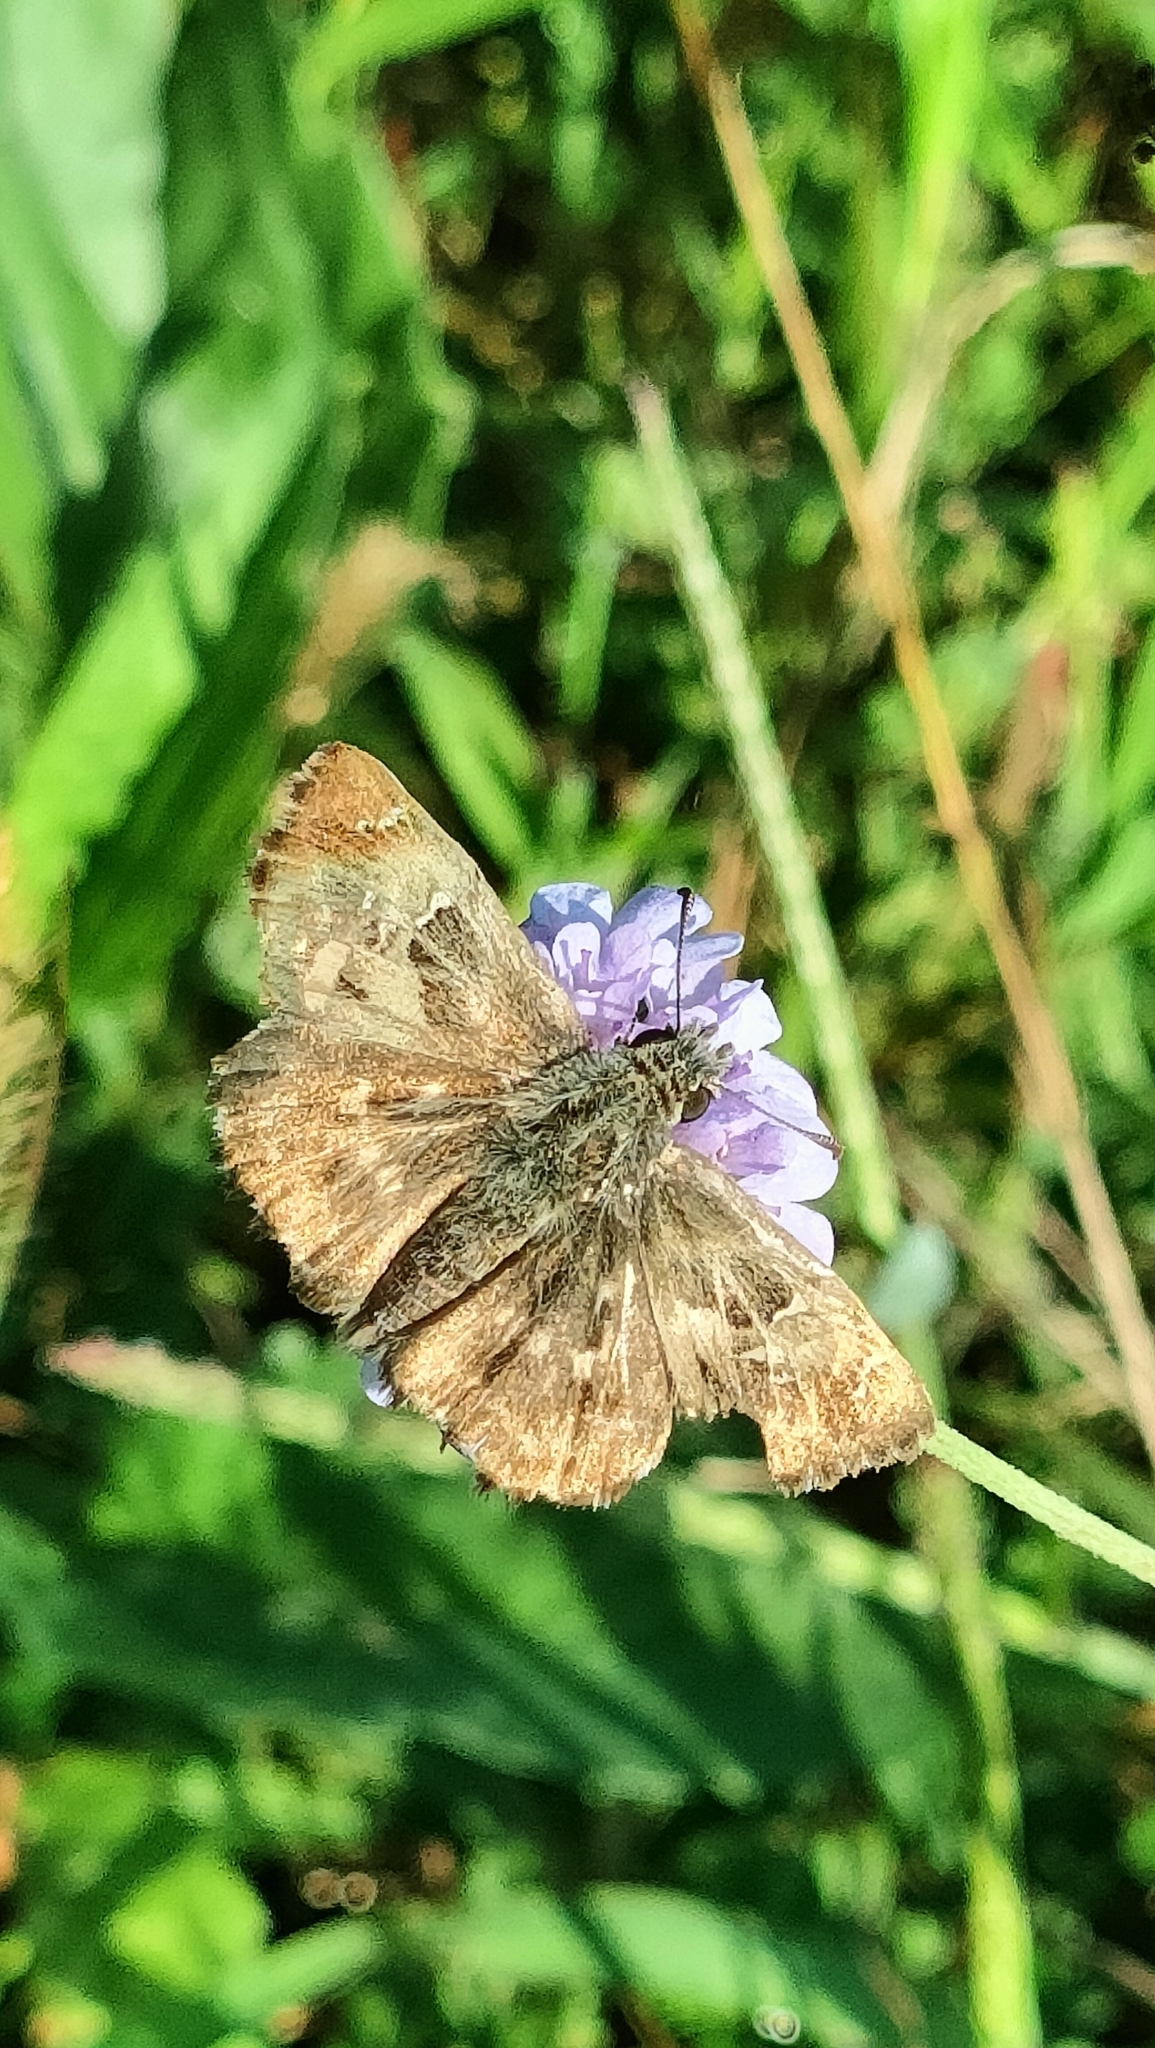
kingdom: Animalia
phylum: Arthropoda
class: Insecta
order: Lepidoptera
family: Hesperiidae
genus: Carcharodus
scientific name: Carcharodus alceae
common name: Mallow skipper
